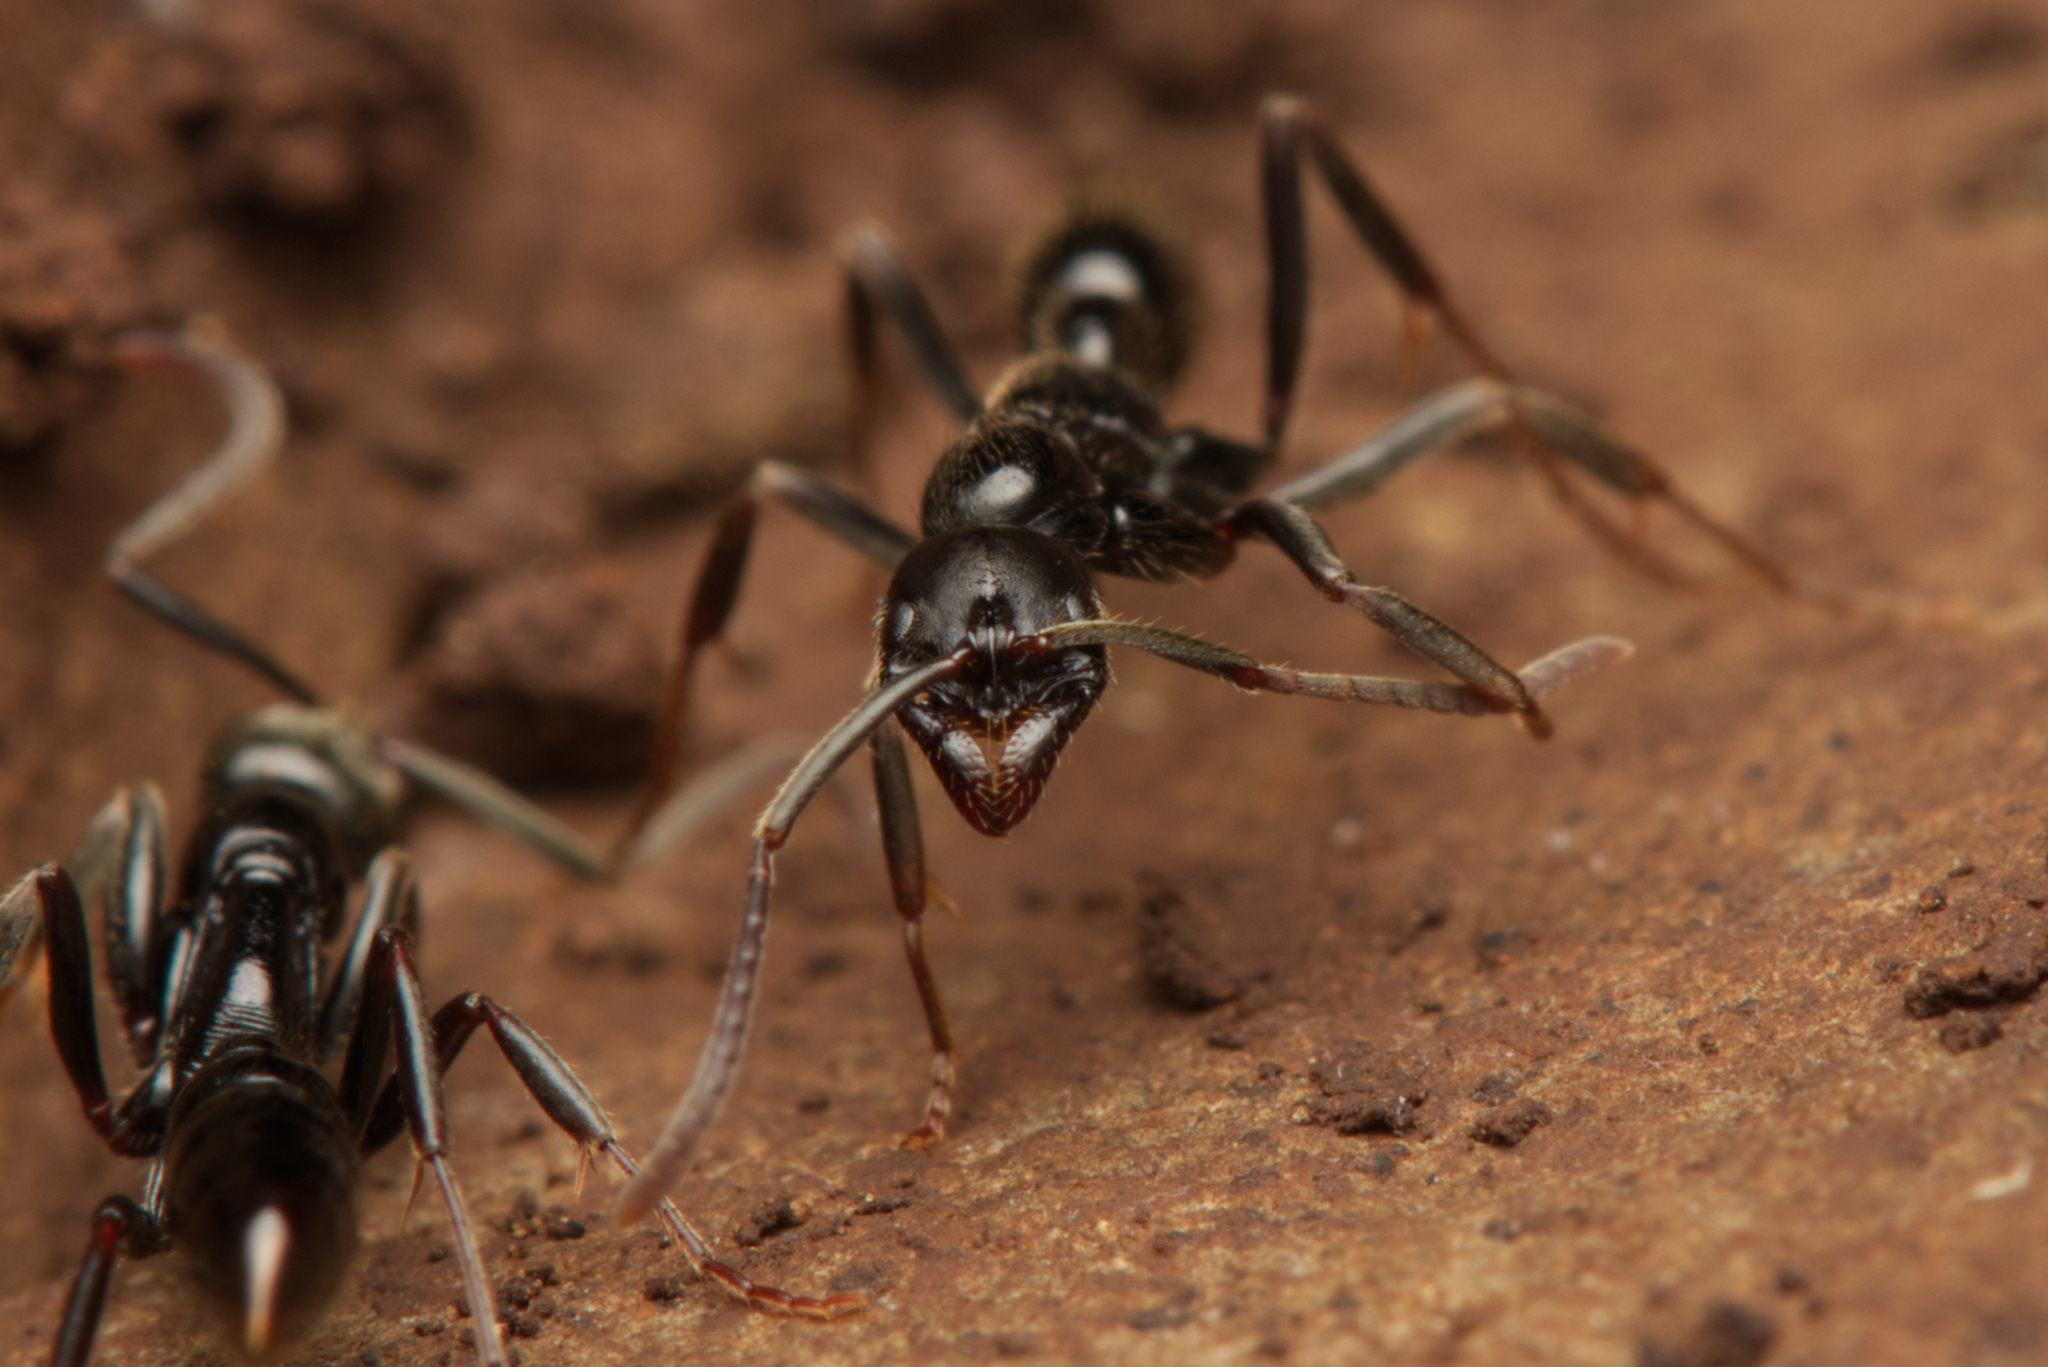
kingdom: Animalia
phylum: Arthropoda
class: Insecta
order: Hymenoptera
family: Formicidae
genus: Leptogenys
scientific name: Leptogenys mjobergi
